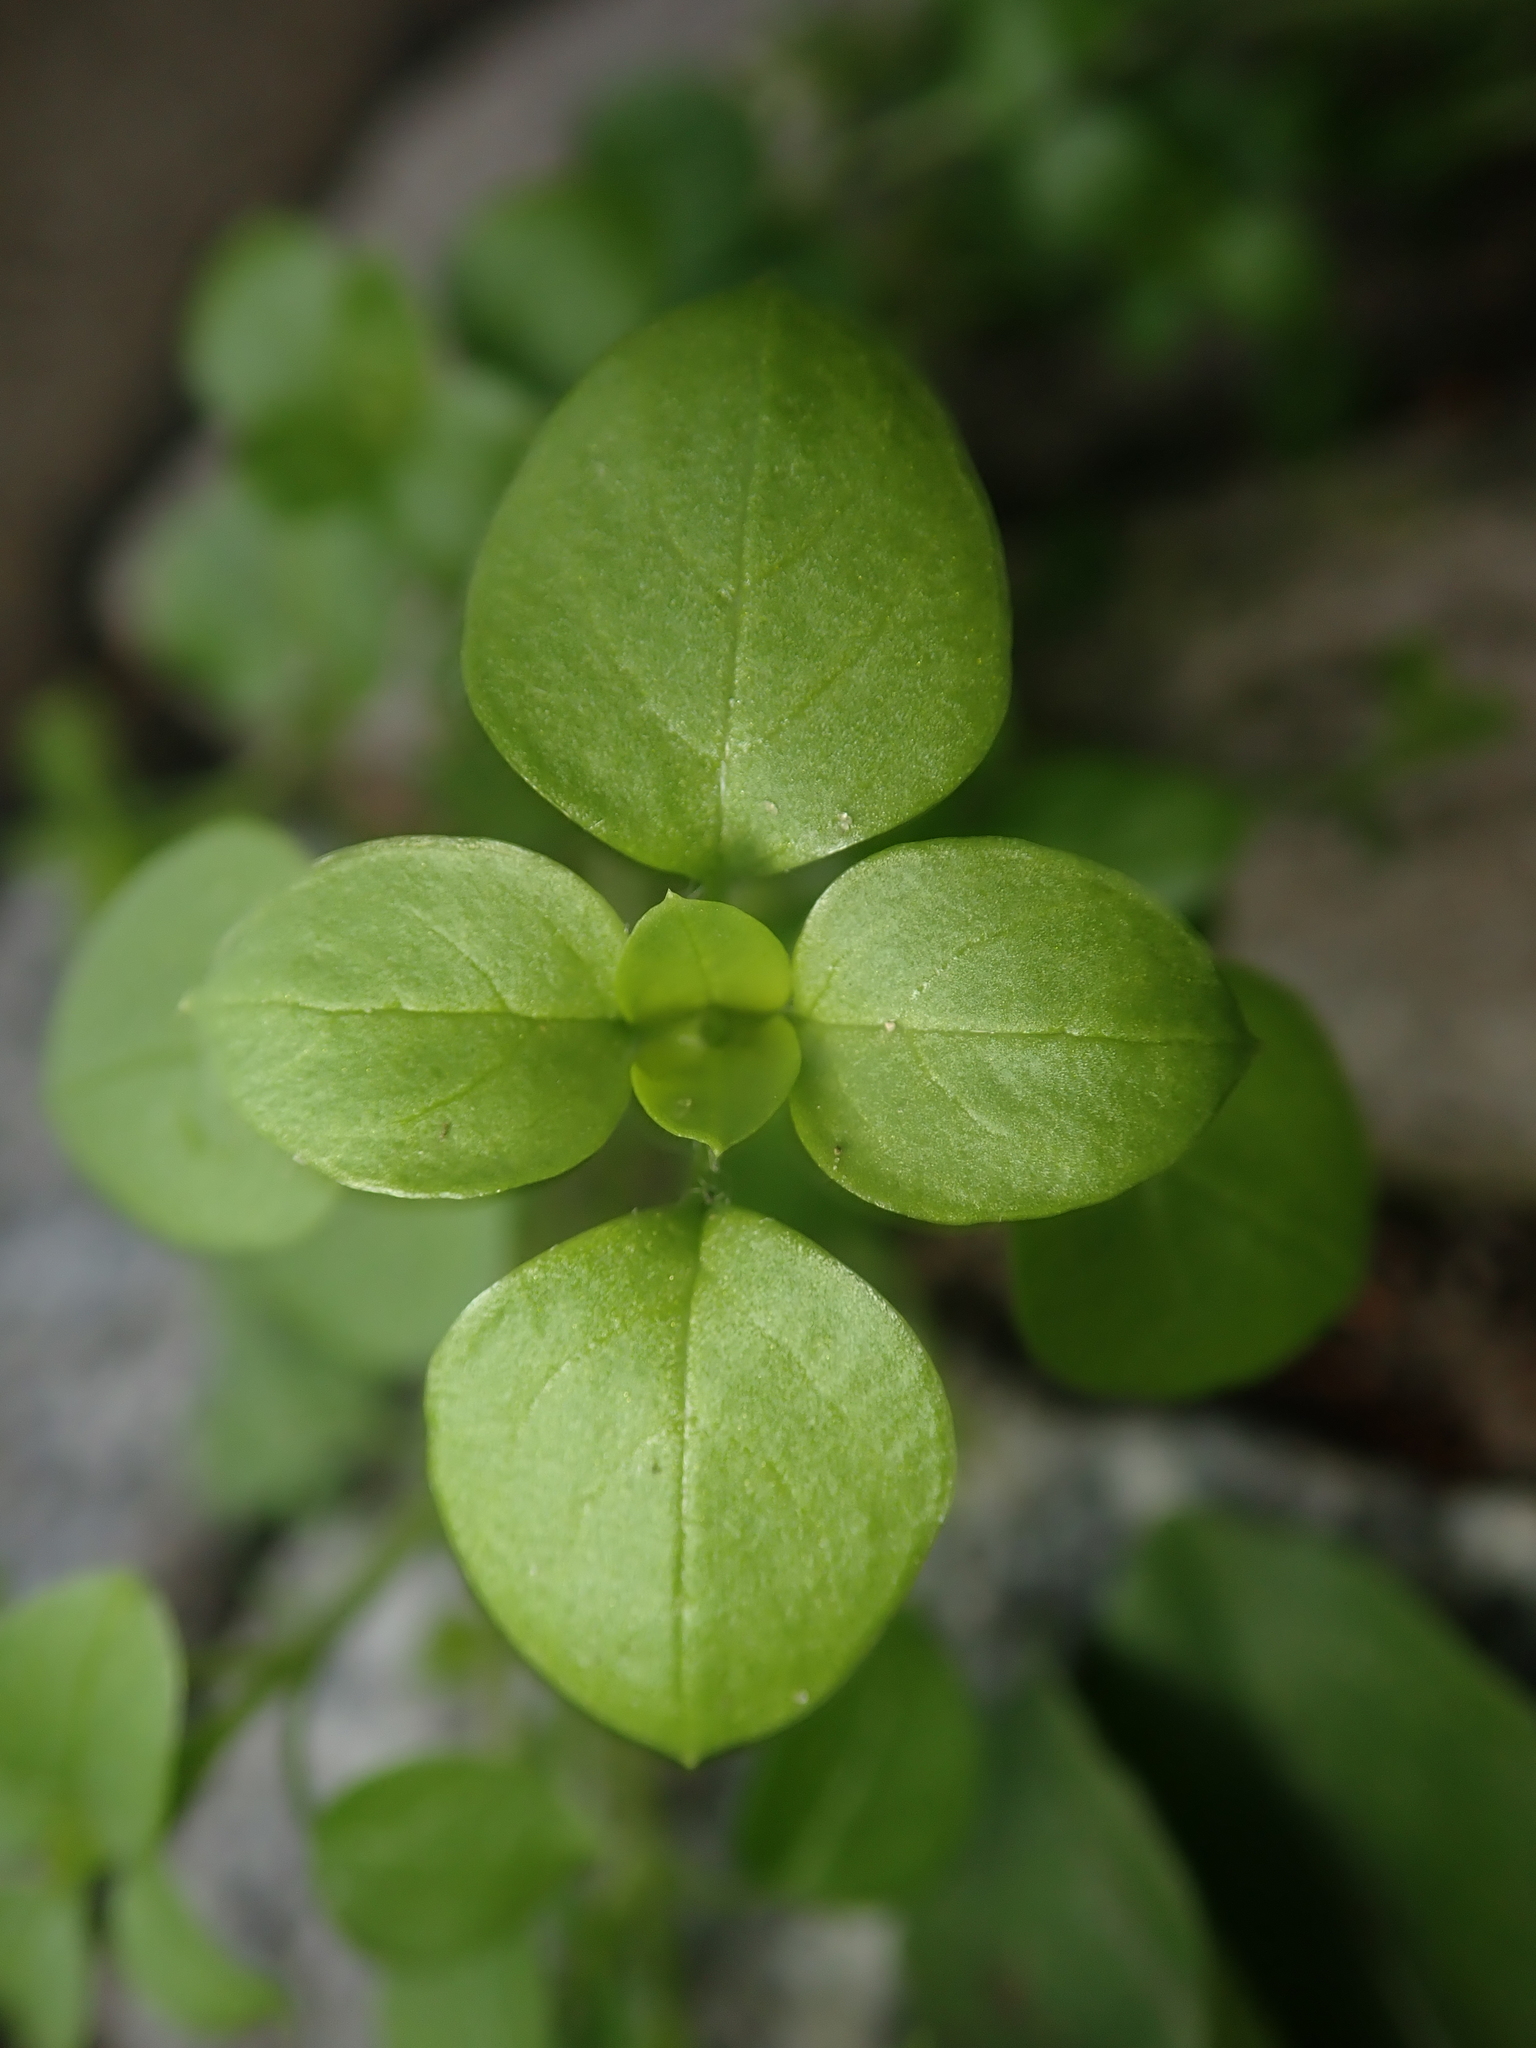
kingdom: Plantae
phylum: Tracheophyta
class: Magnoliopsida
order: Caryophyllales
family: Caryophyllaceae
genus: Stellaria
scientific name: Stellaria
